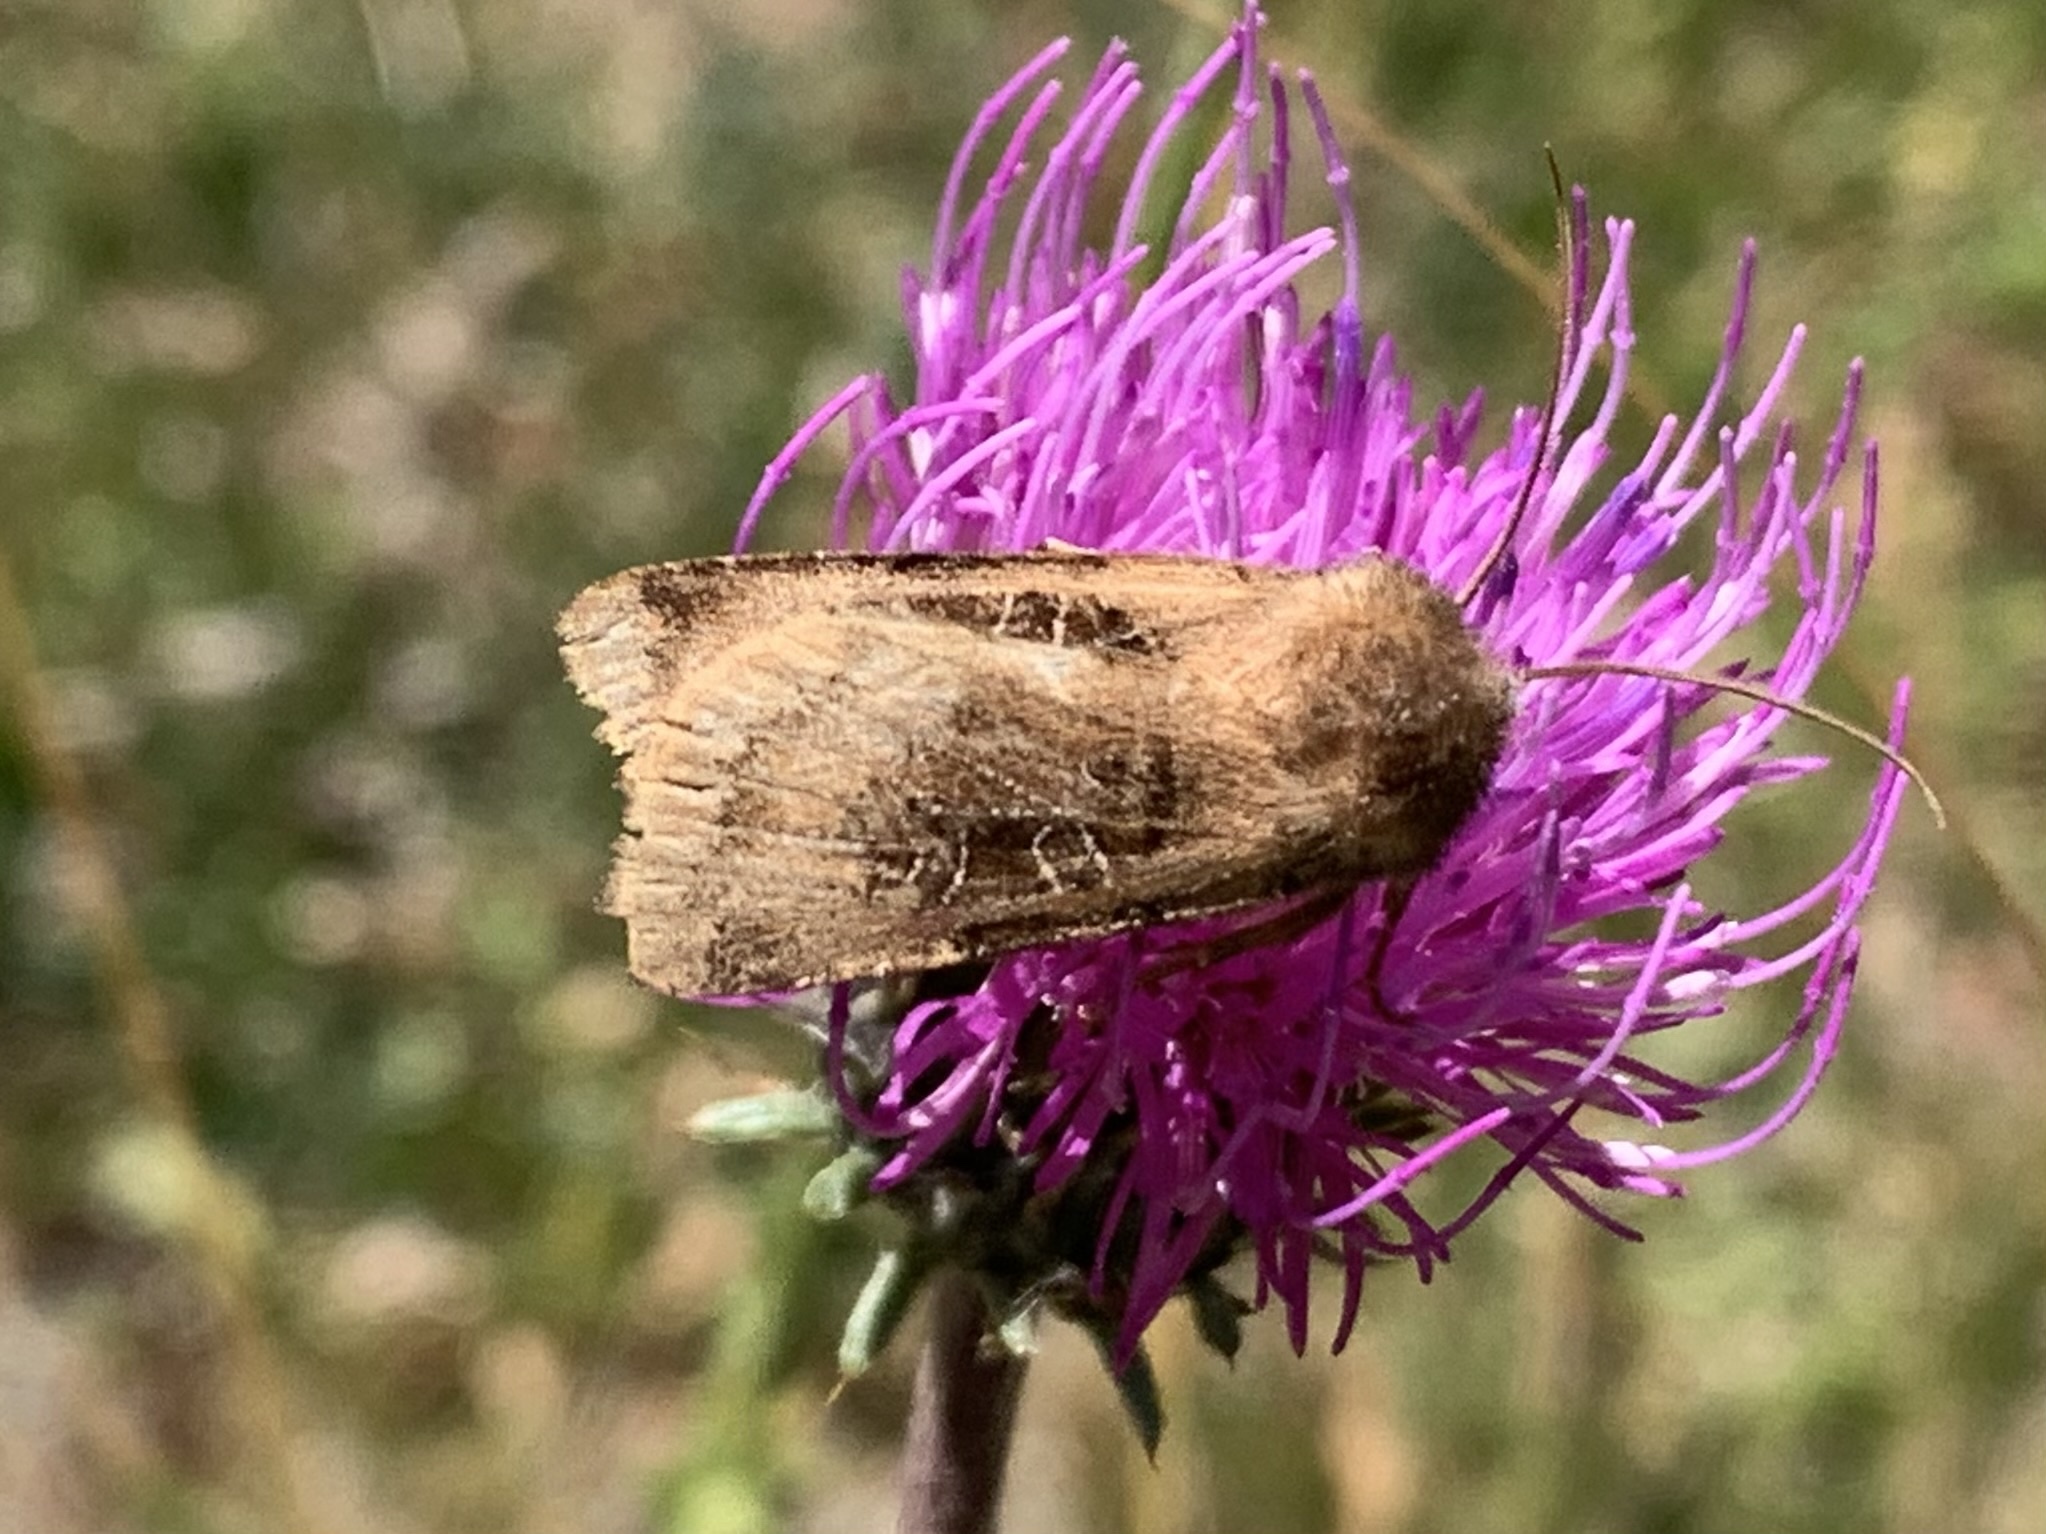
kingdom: Animalia
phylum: Arthropoda
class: Insecta
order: Lepidoptera
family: Noctuidae
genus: Chersotis
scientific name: Chersotis cuprea
